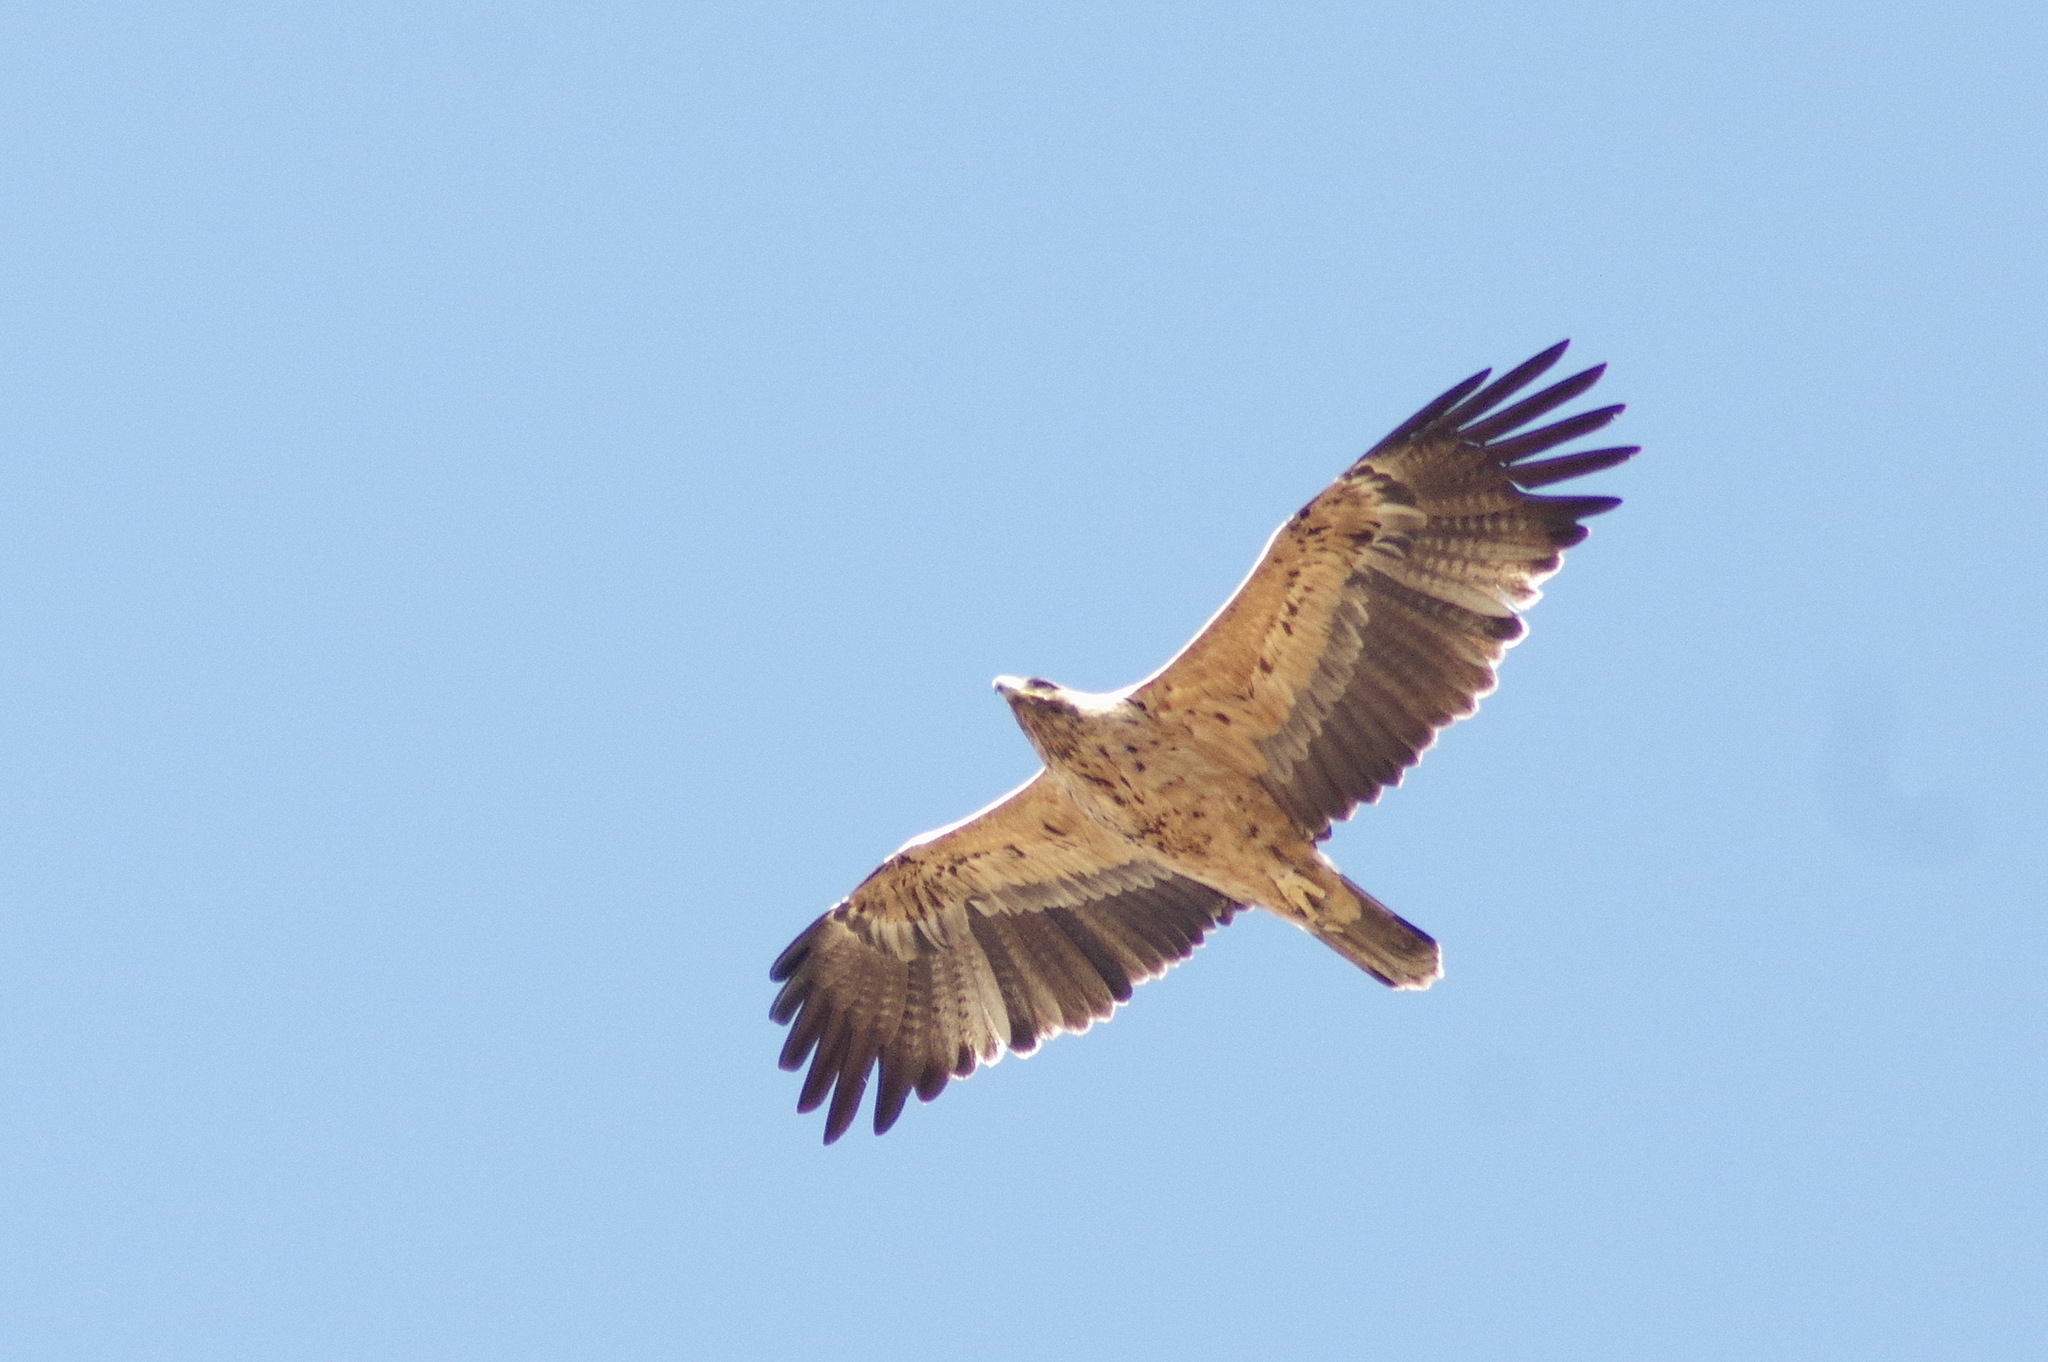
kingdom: Animalia
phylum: Chordata
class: Aves
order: Accipitriformes
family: Accipitridae
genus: Aquila
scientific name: Aquila adalberti
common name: Spanish imperial eagle
